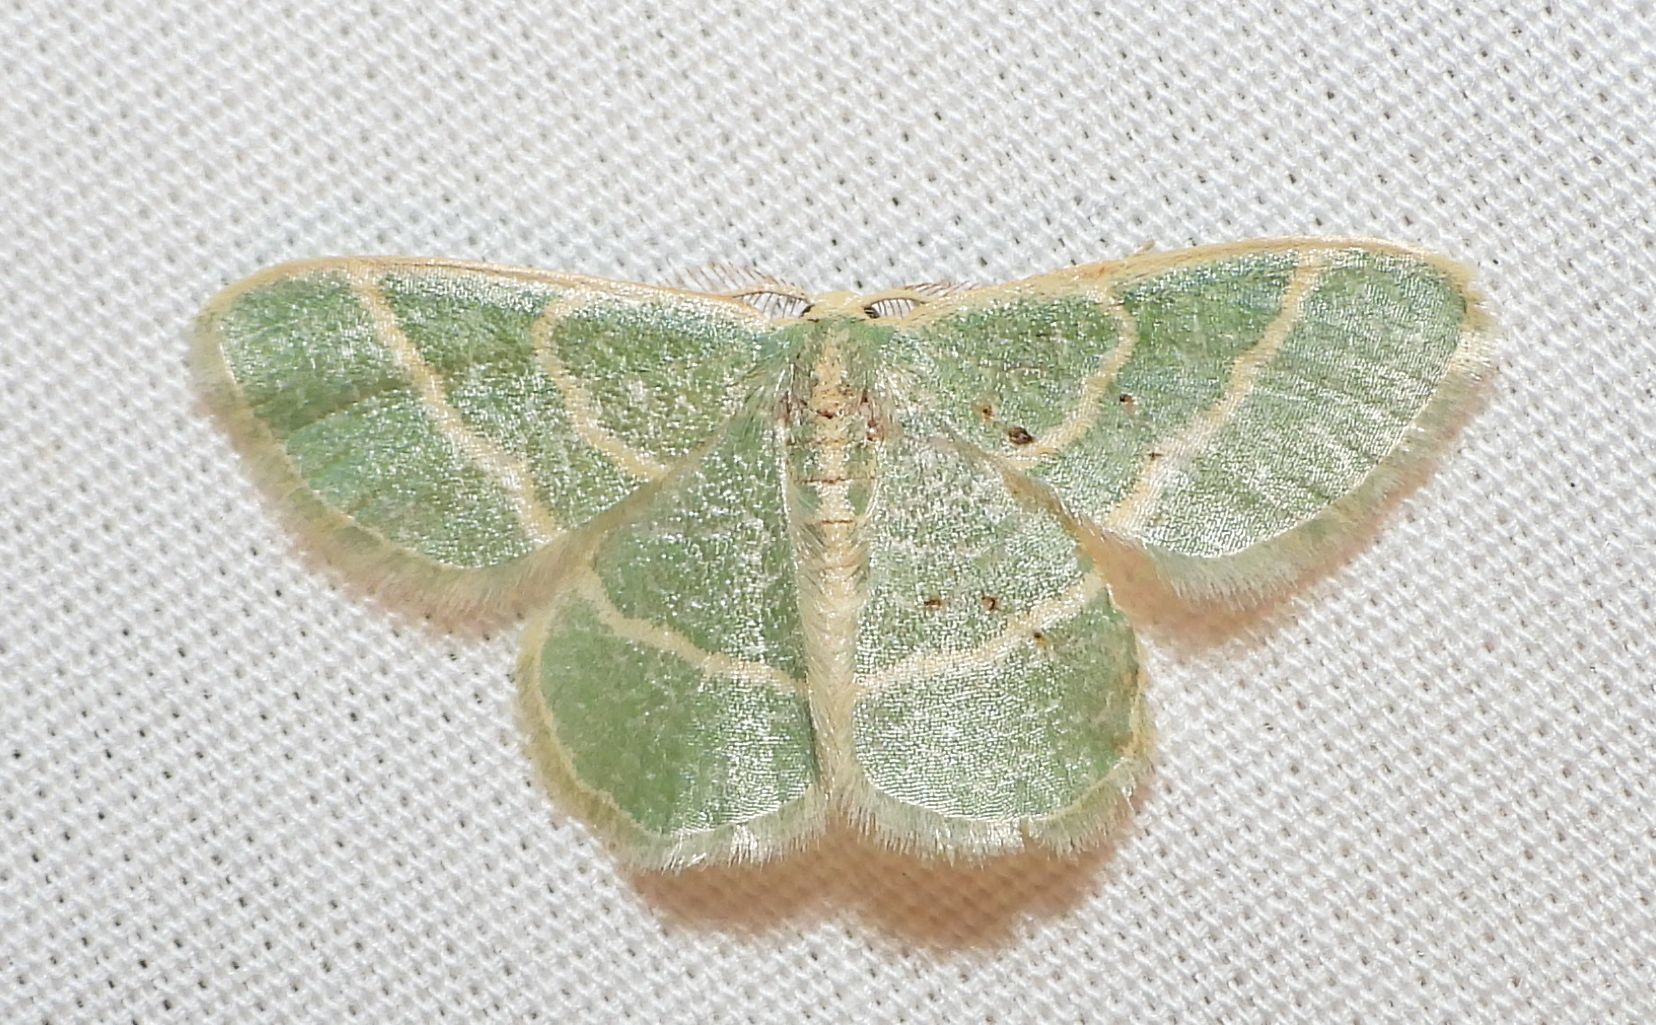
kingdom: Animalia
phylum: Arthropoda
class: Insecta
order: Lepidoptera
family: Geometridae
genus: Chlorochlamys
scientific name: Chlorochlamys chloroleucaria
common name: Blackberry looper
